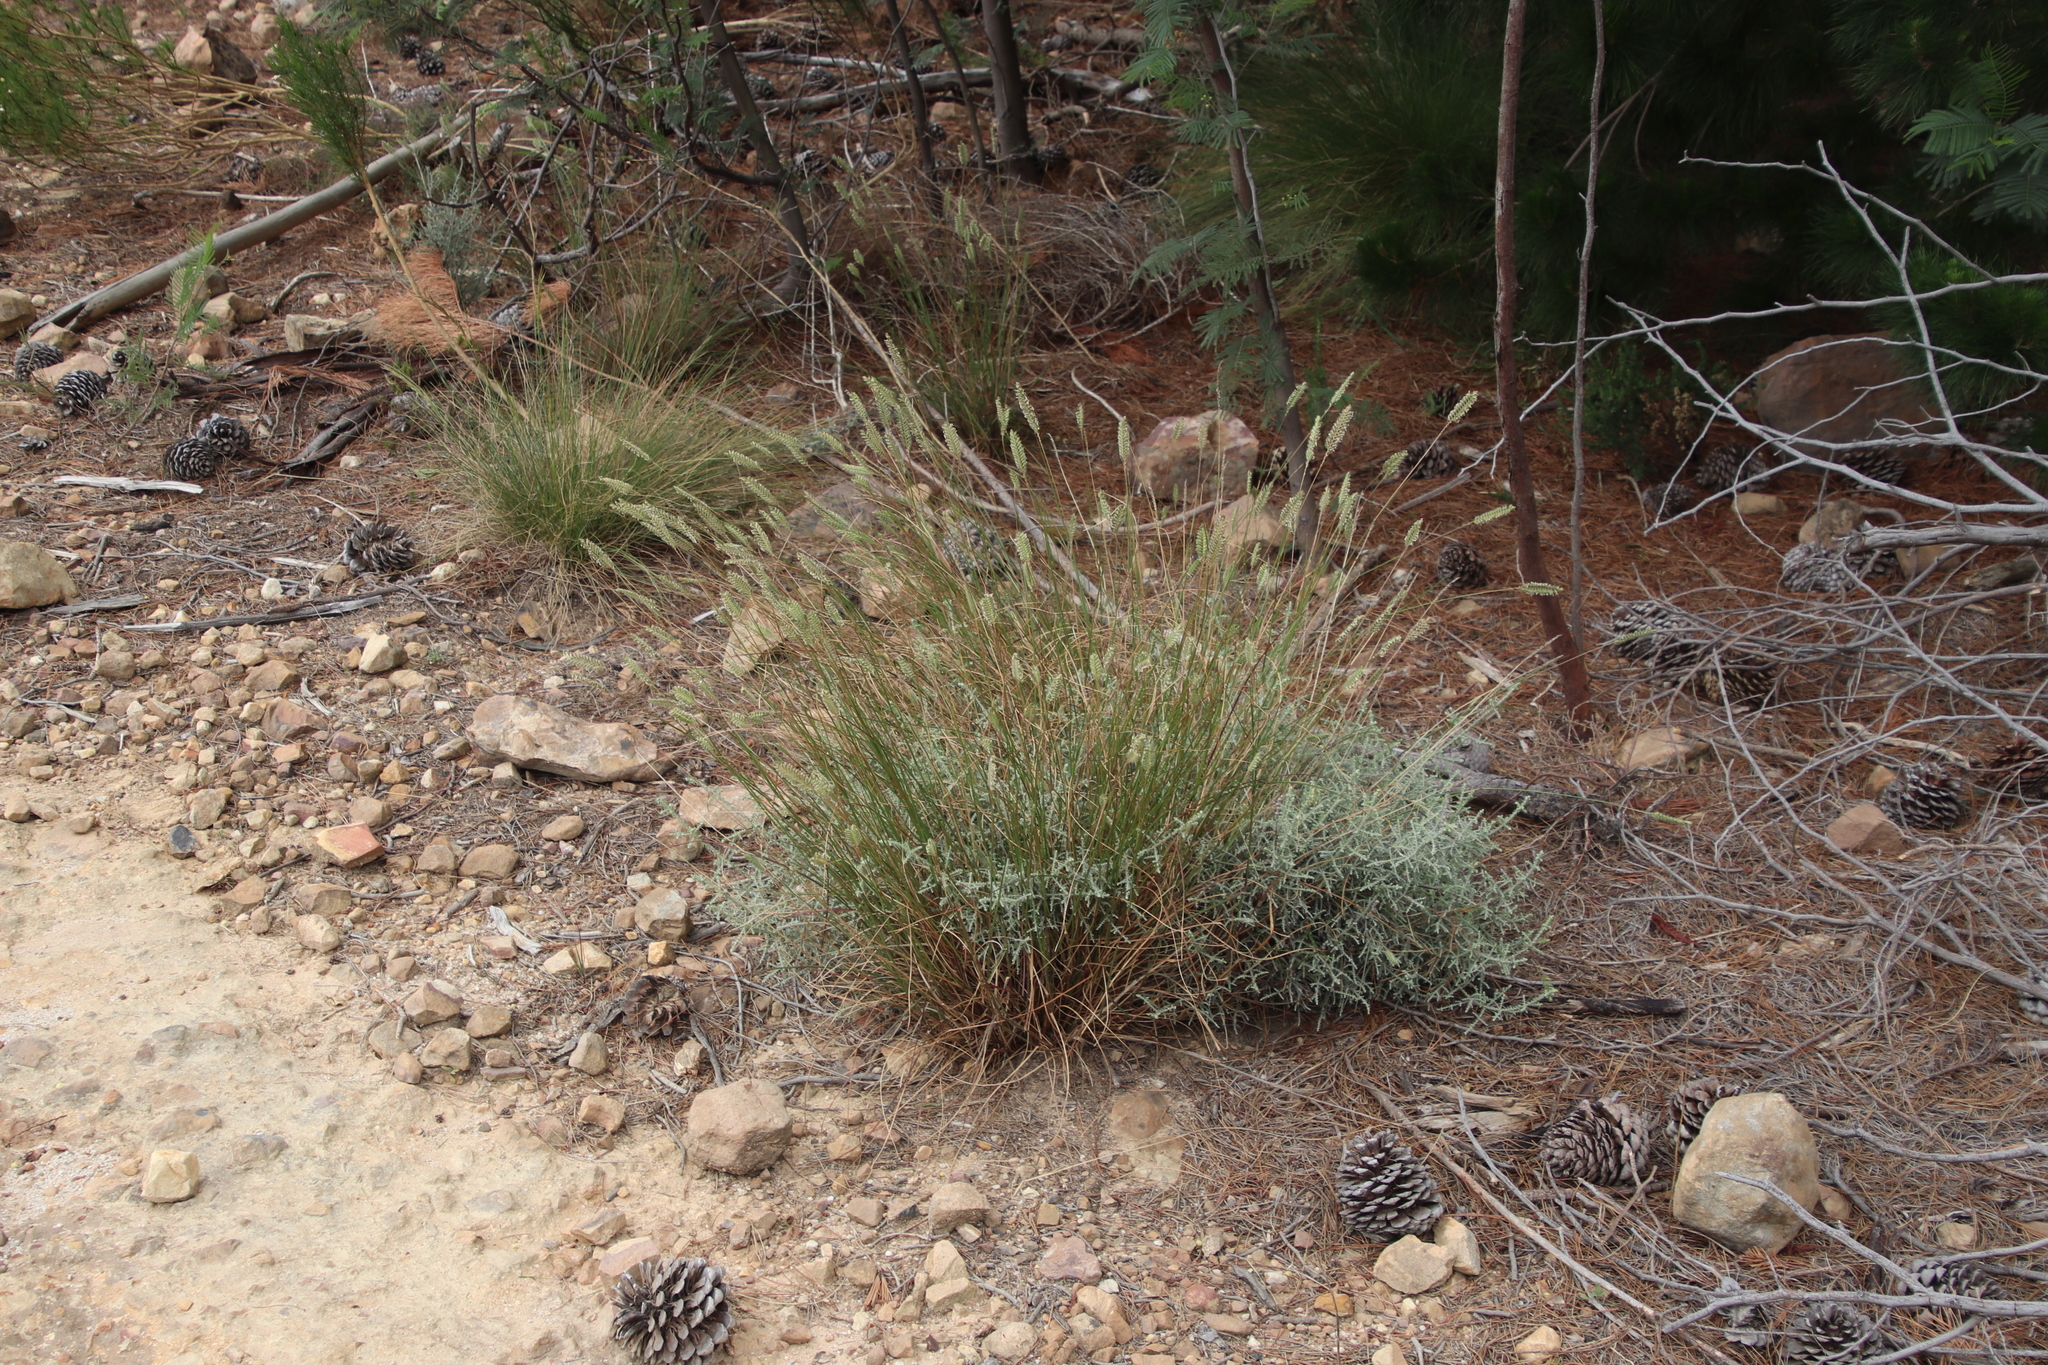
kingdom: Plantae
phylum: Tracheophyta
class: Liliopsida
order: Poales
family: Poaceae
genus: Tribolium
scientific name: Tribolium uniolae
